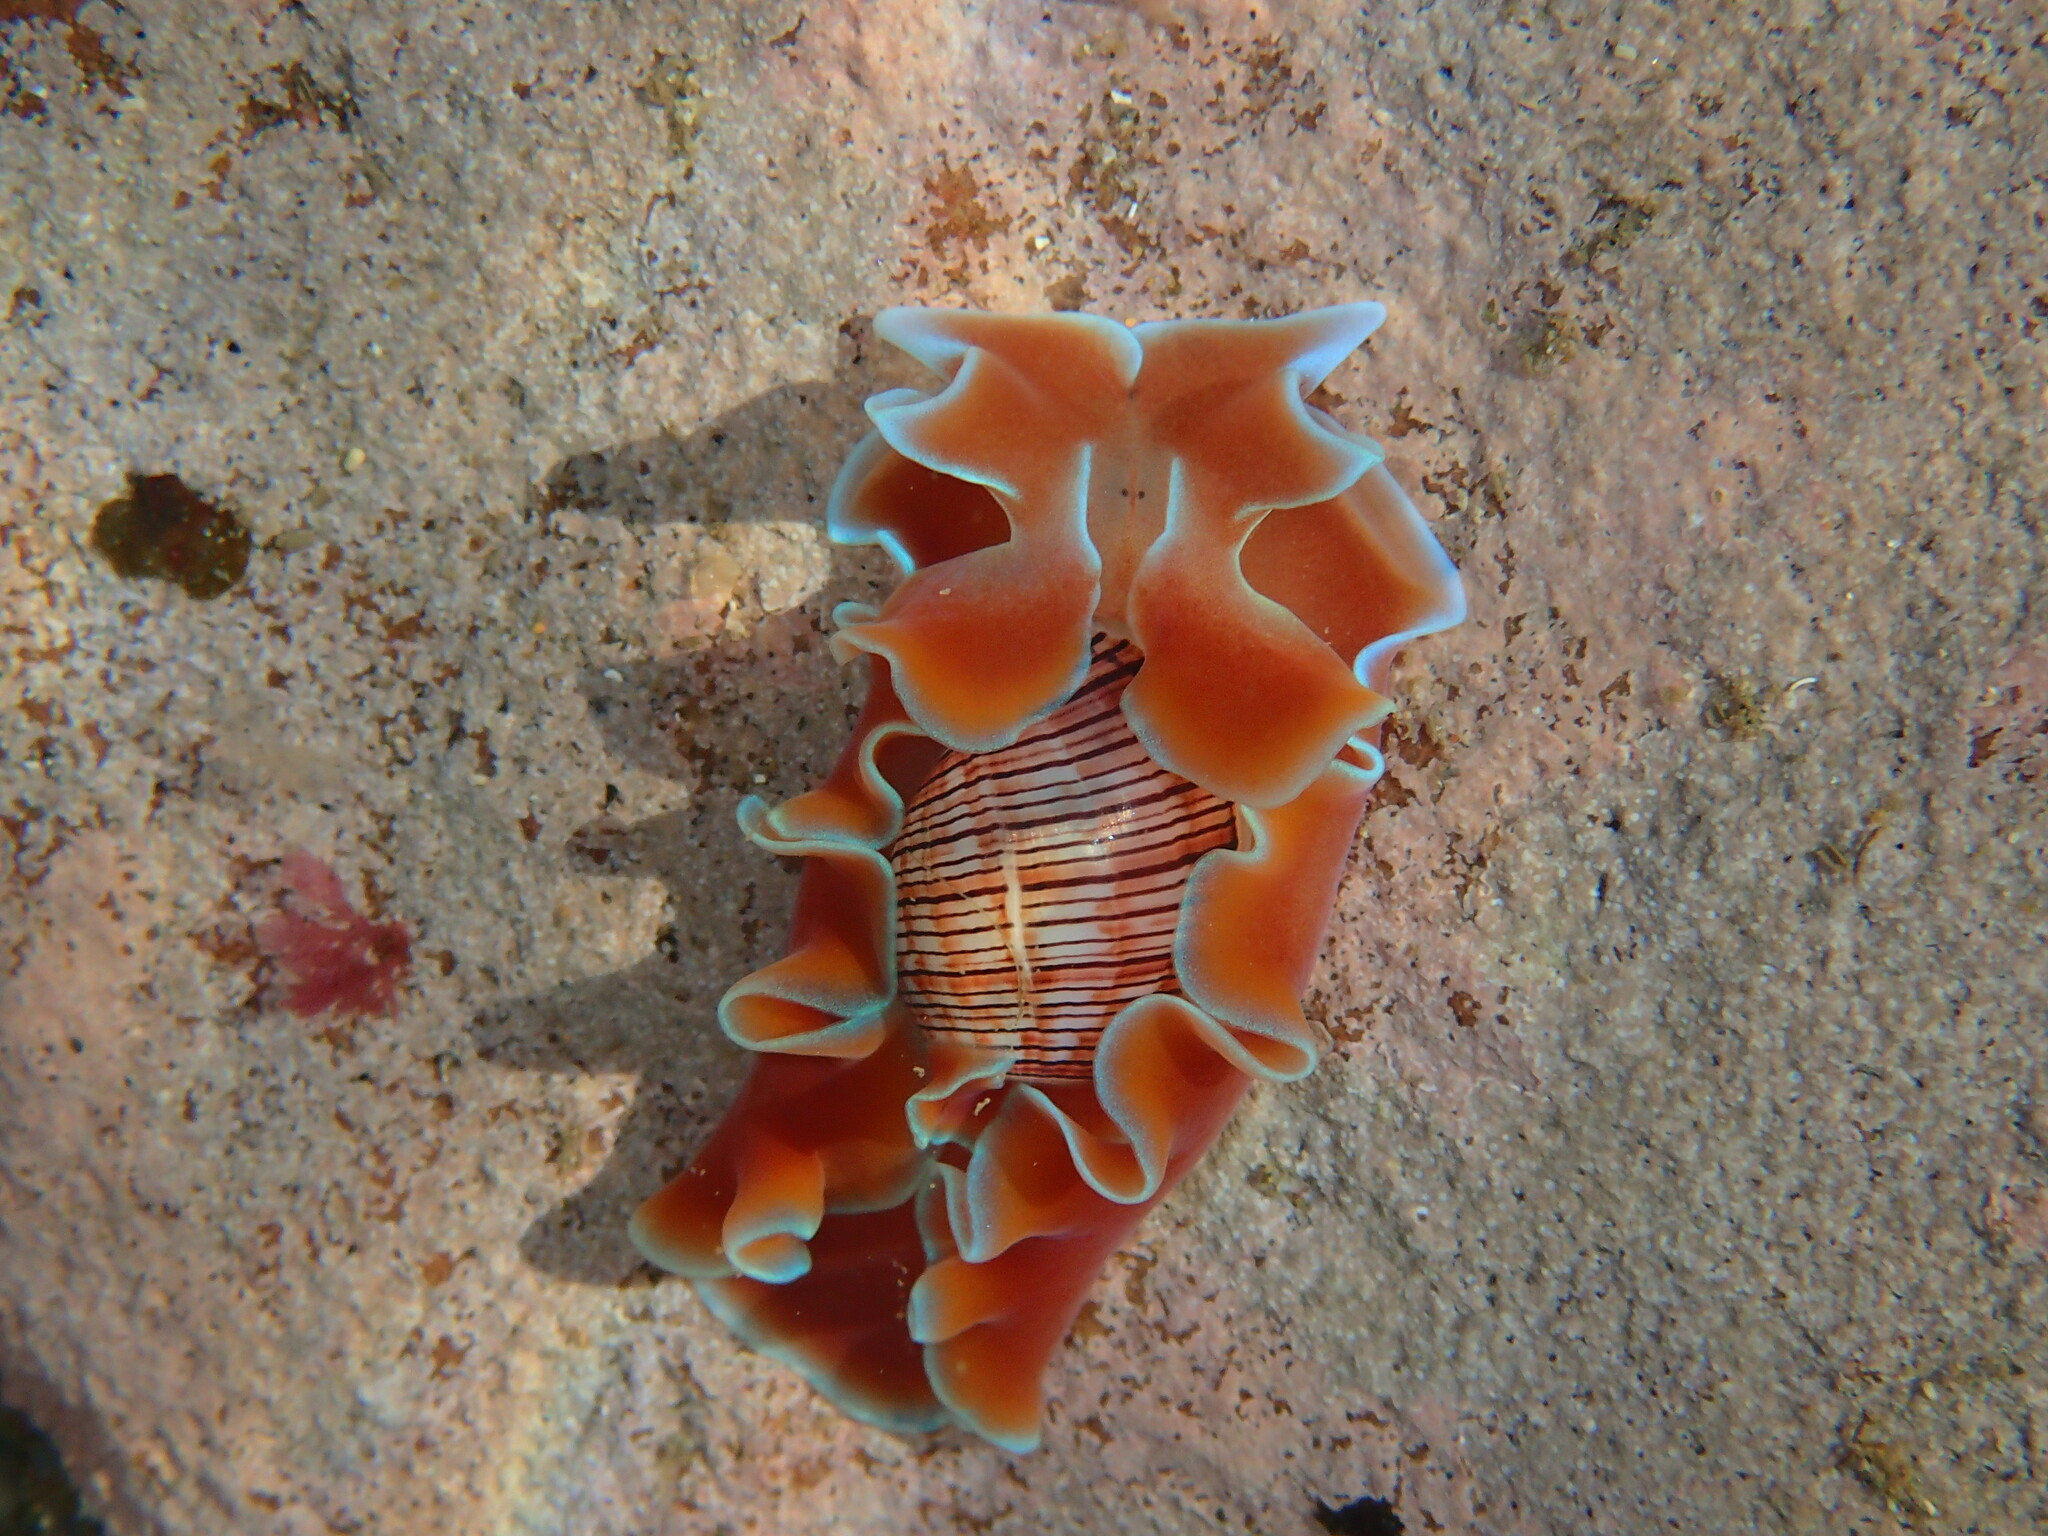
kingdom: Animalia
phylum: Mollusca
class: Gastropoda
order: Cephalaspidea
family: Aplustridae
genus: Hydatina
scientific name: Hydatina physis
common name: Brown-line paperbubble
